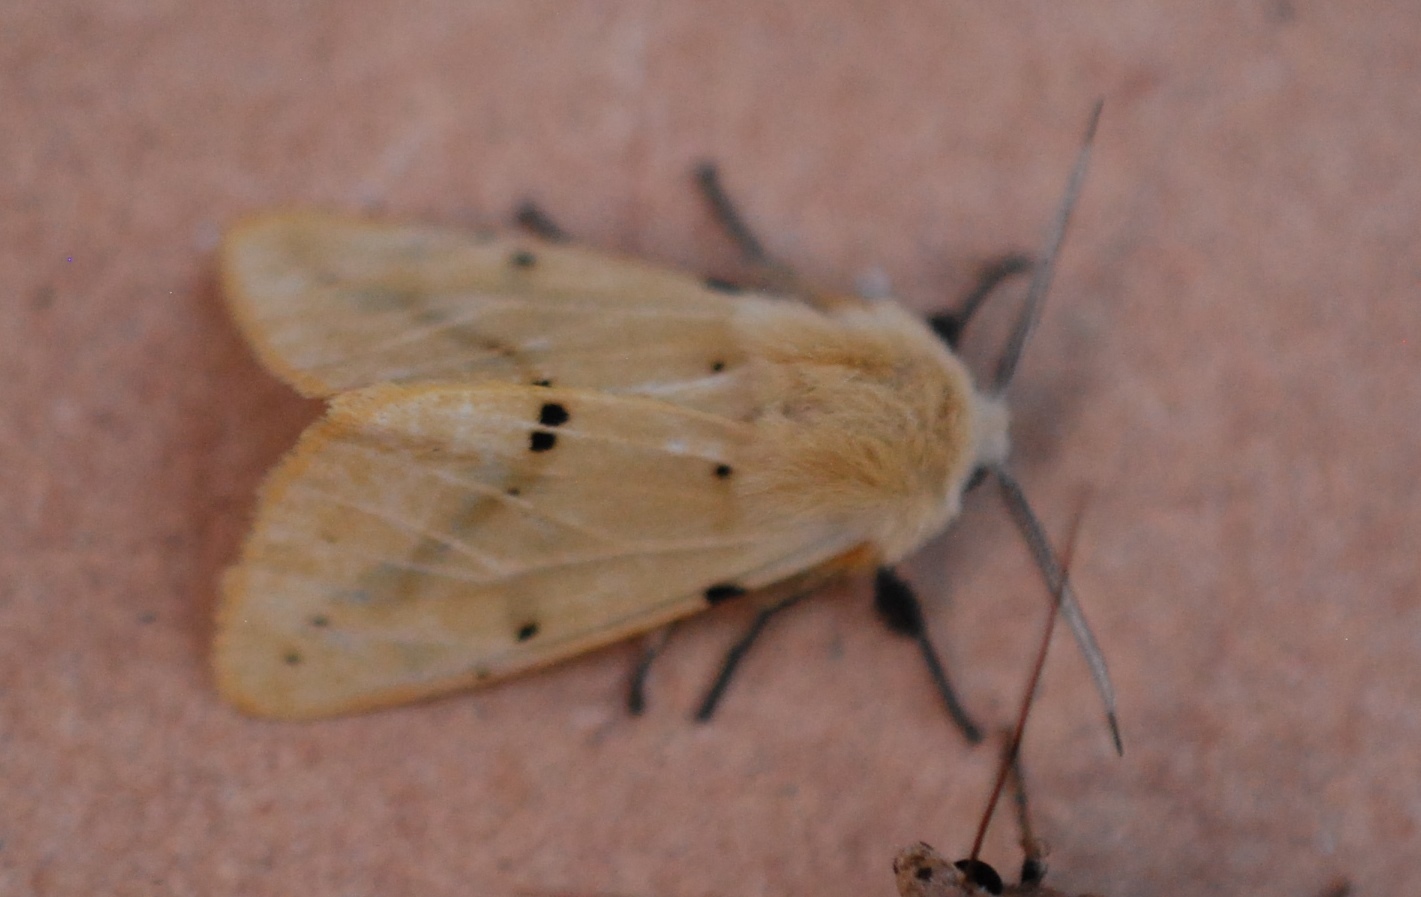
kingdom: Animalia
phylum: Arthropoda
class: Insecta
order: Lepidoptera
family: Erebidae
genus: Spilarctia
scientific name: Spilarctia lutea
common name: Buff ermine
